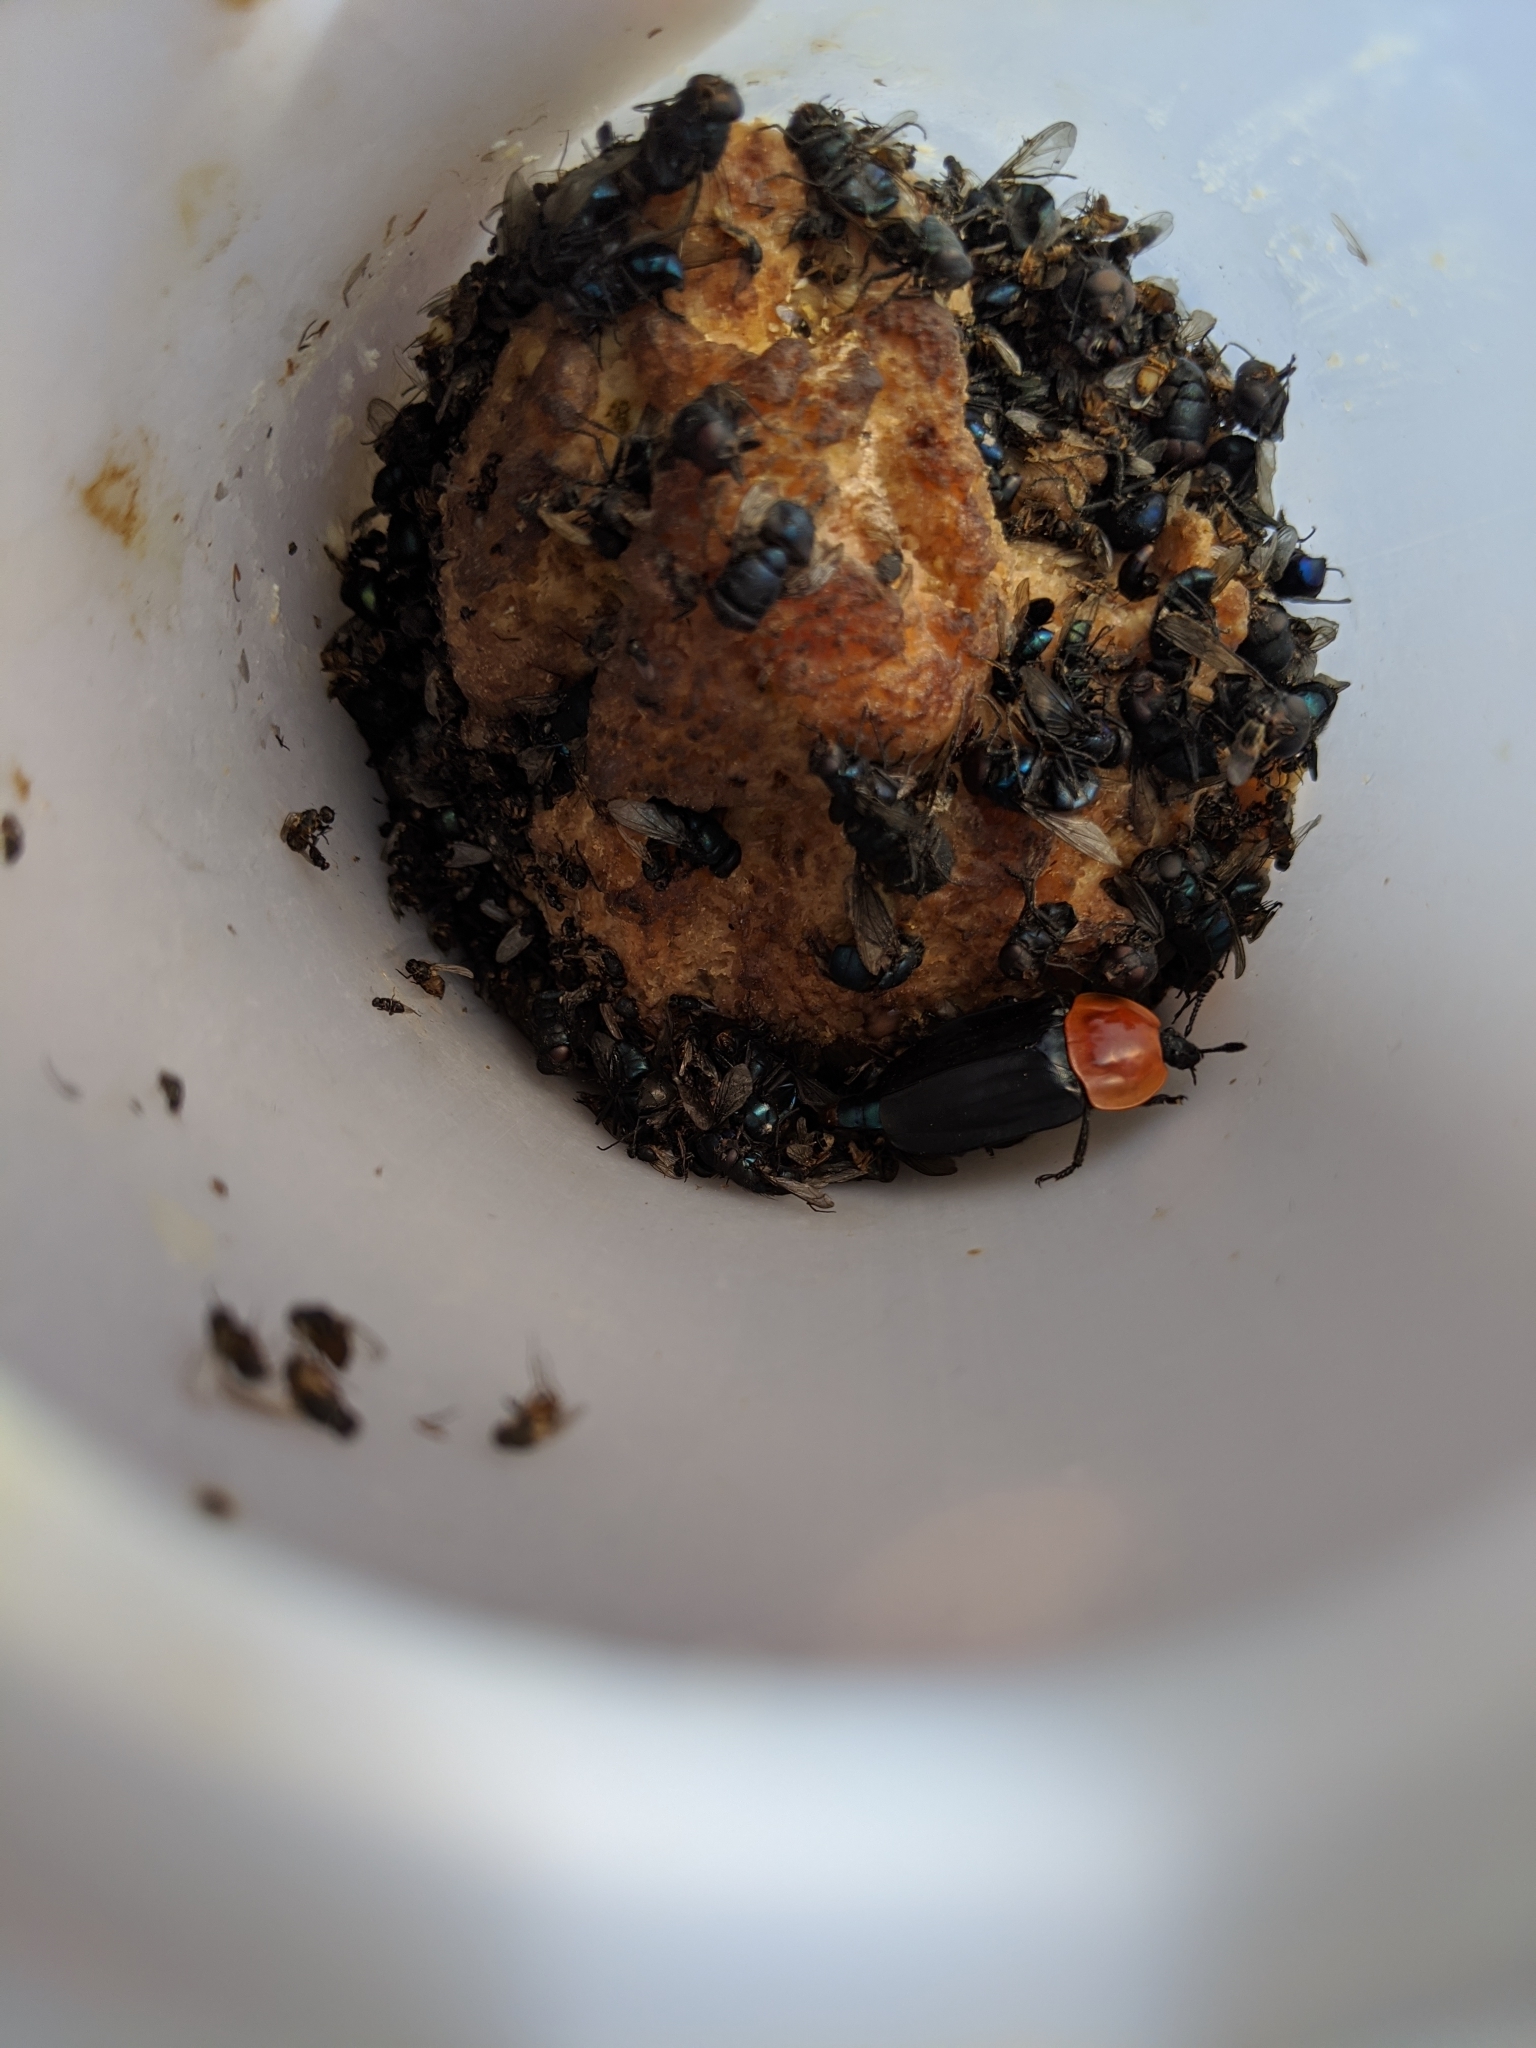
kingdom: Animalia
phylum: Arthropoda
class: Insecta
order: Coleoptera
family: Staphylinidae
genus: Necrophila
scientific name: Necrophila cyaneocephala
